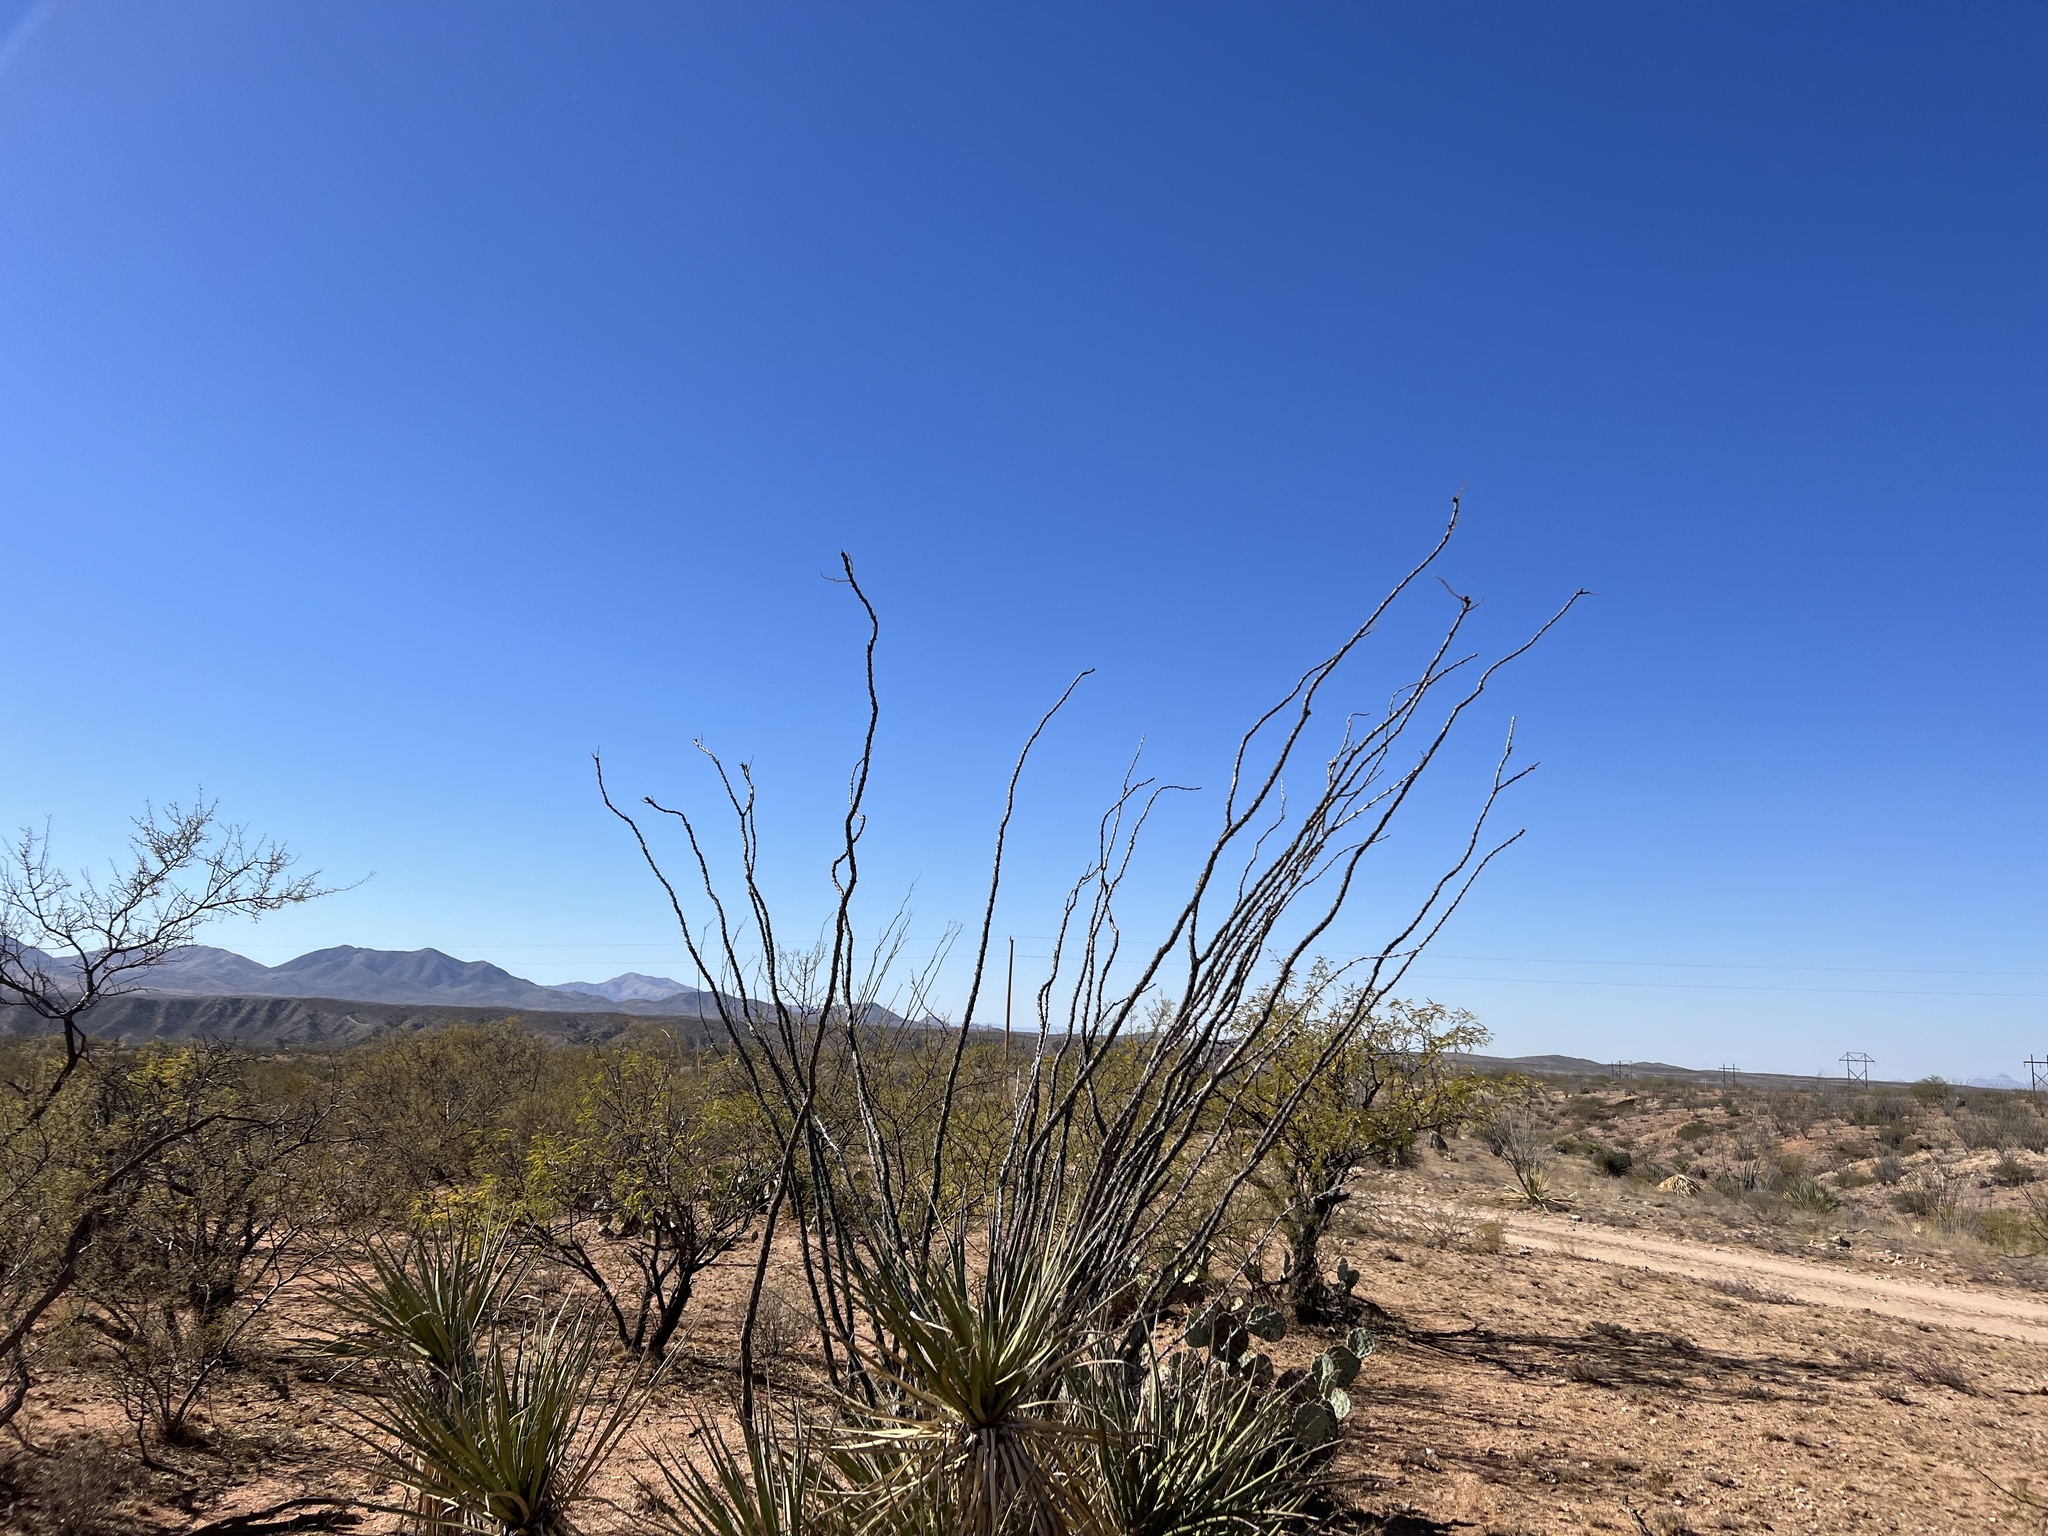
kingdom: Plantae
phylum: Tracheophyta
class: Magnoliopsida
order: Ericales
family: Fouquieriaceae
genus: Fouquieria
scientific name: Fouquieria splendens
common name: Vine-cactus
